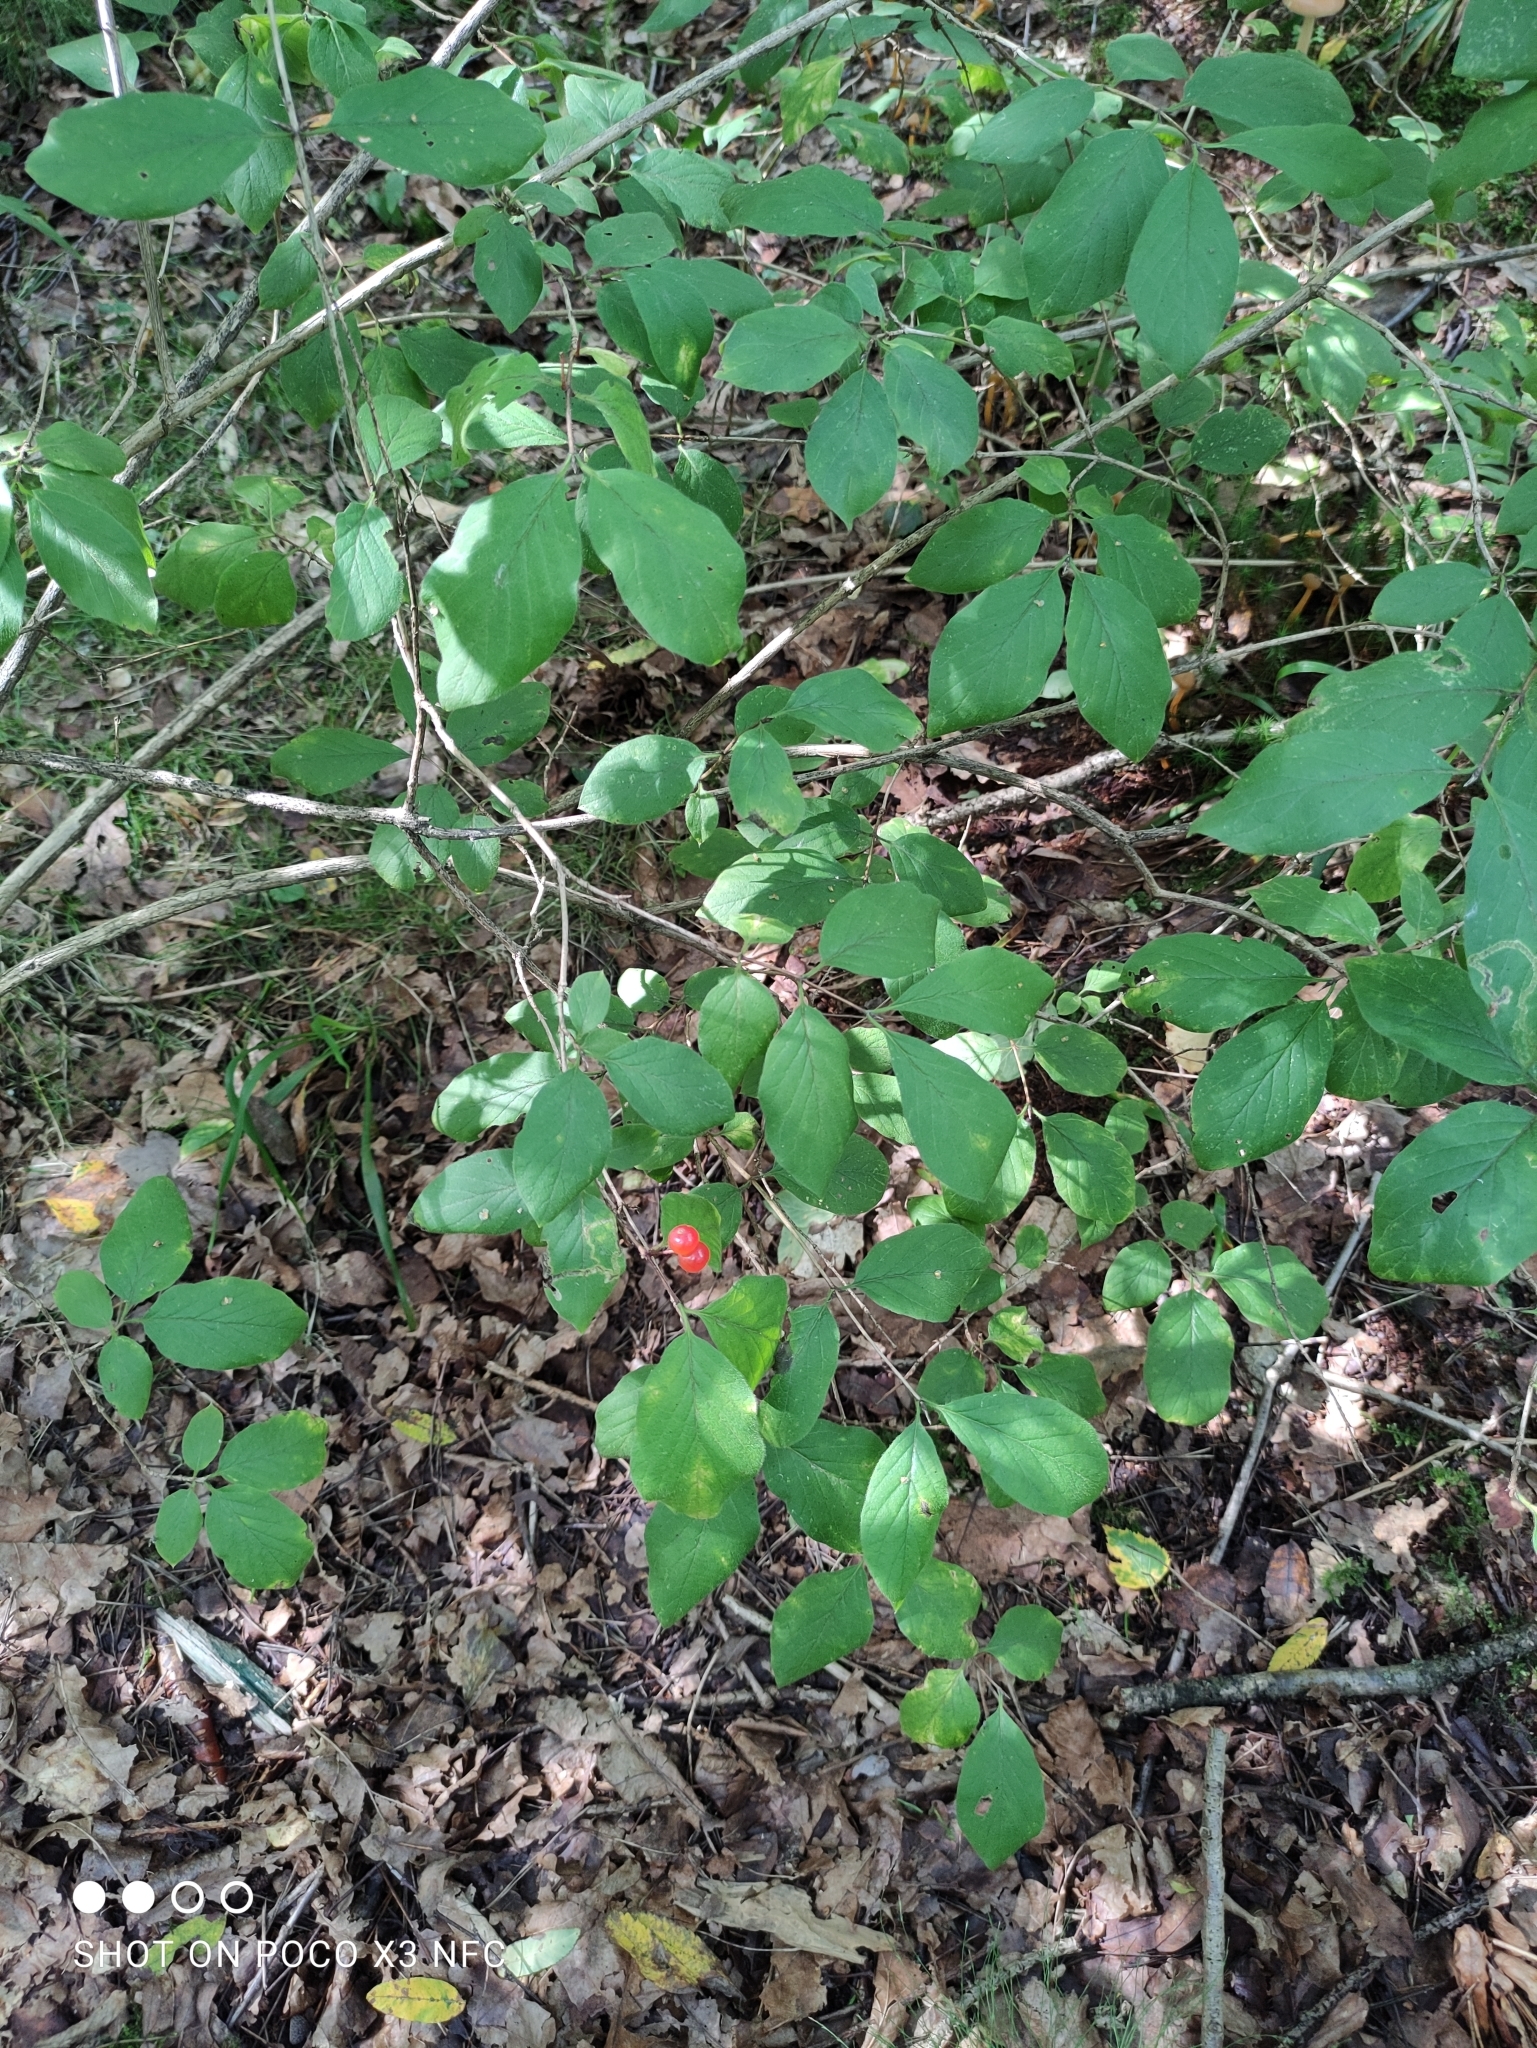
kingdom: Plantae
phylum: Tracheophyta
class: Magnoliopsida
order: Dipsacales
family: Caprifoliaceae
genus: Lonicera
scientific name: Lonicera xylosteum
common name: Fly honeysuckle
